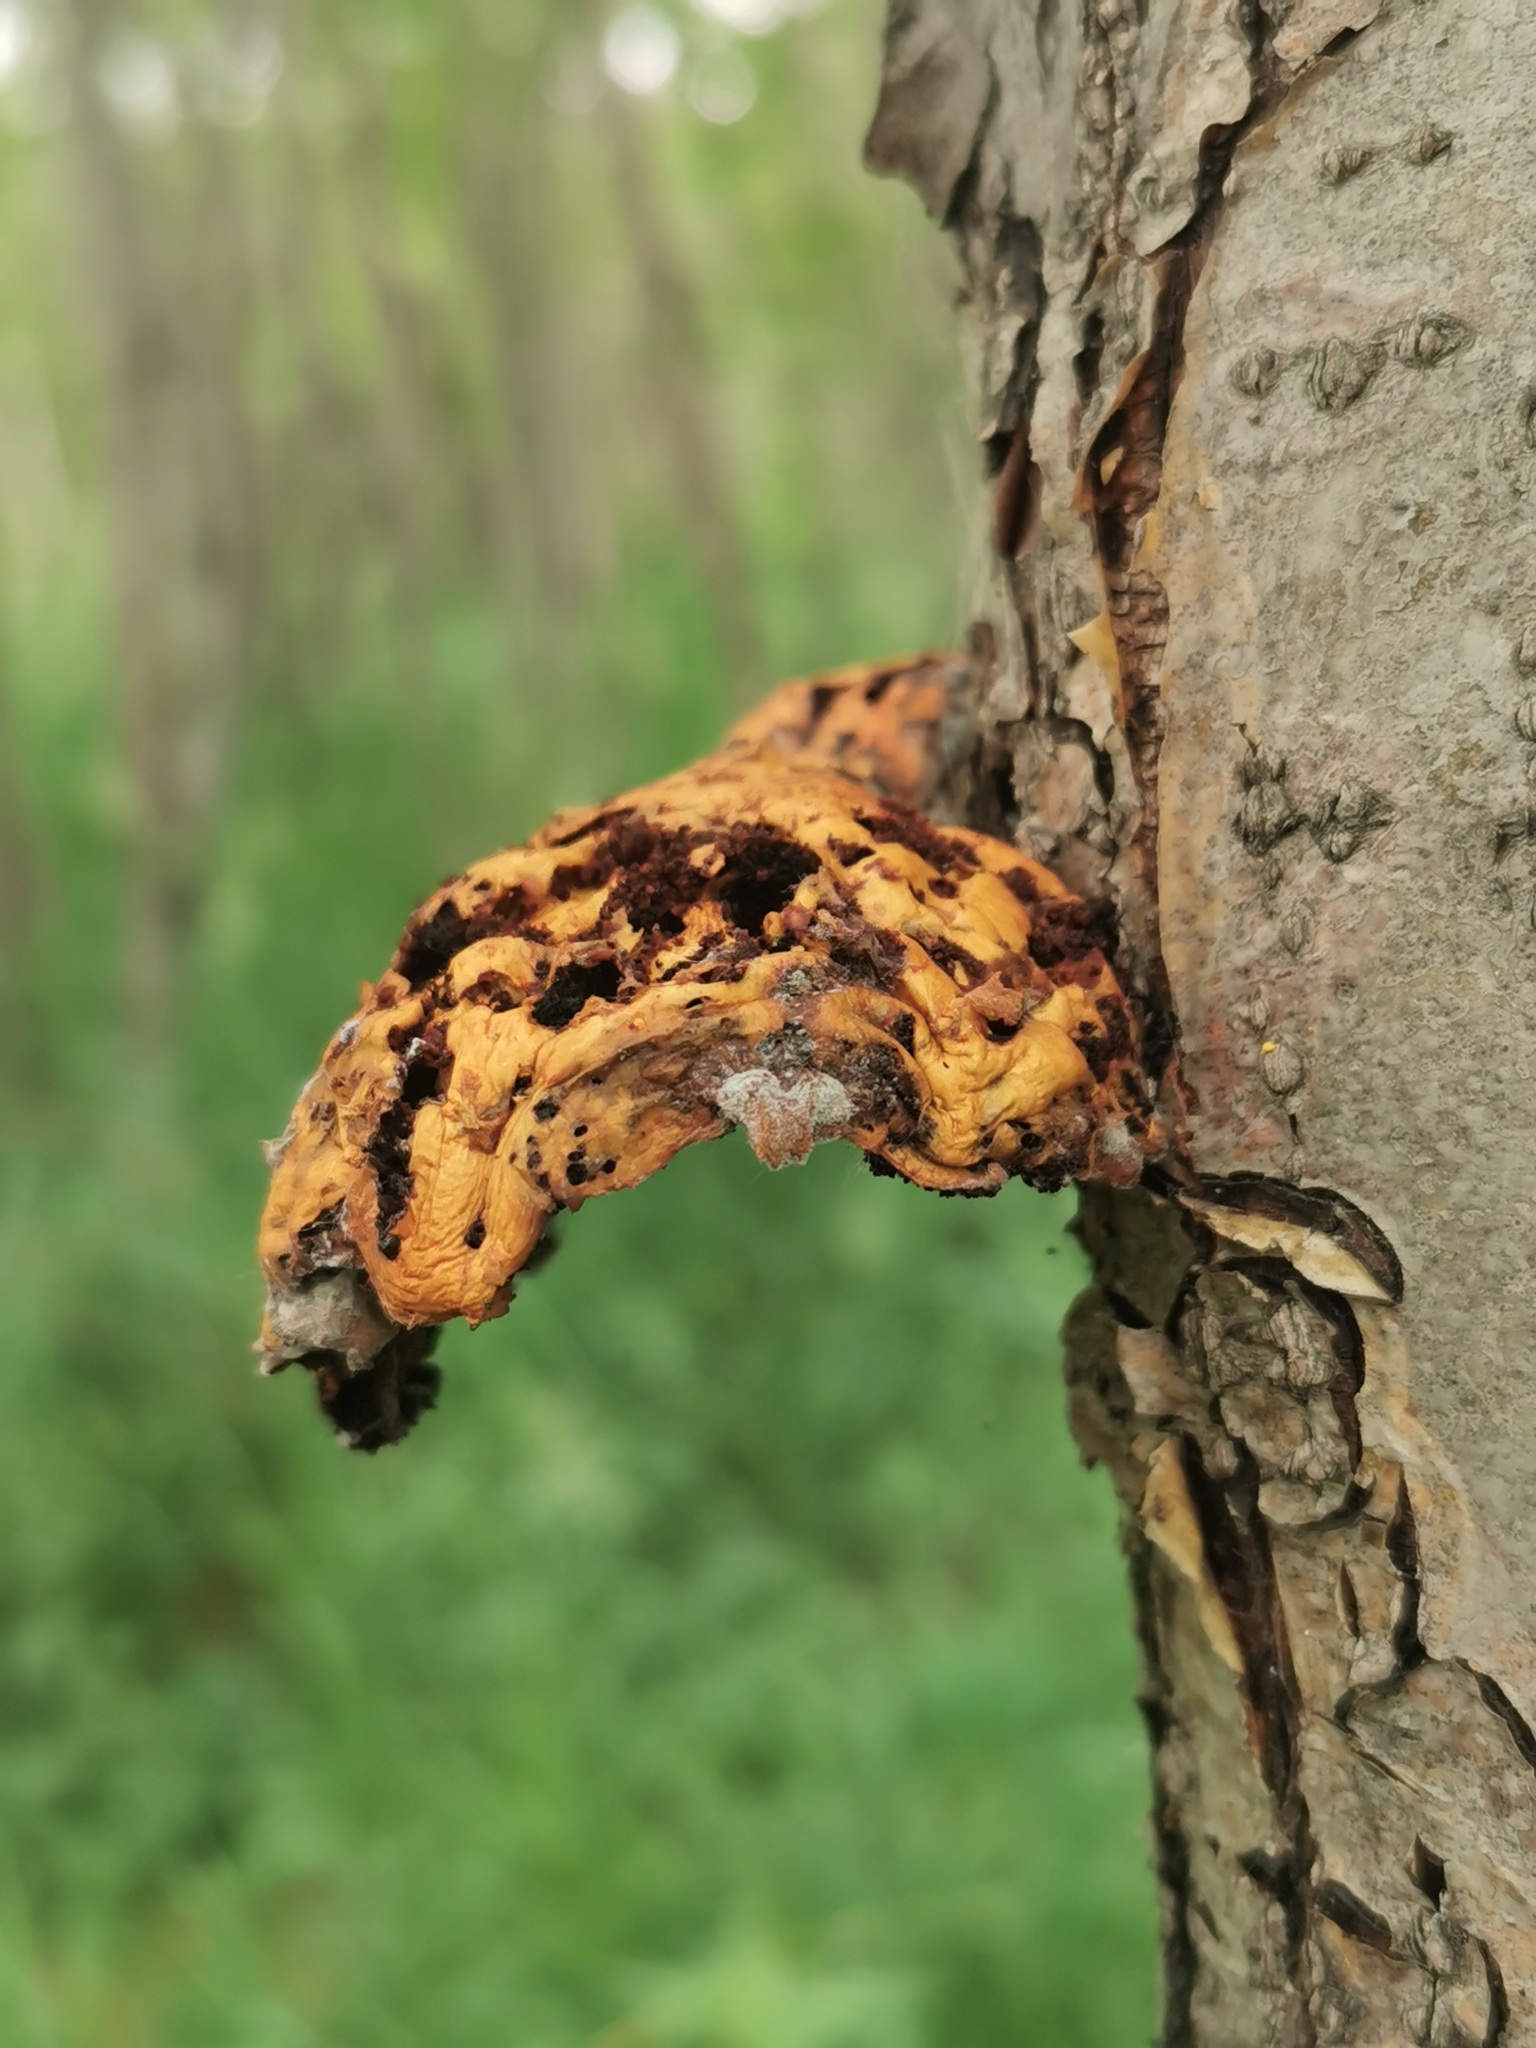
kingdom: Fungi
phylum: Basidiomycota
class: Agaricomycetes
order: Agaricales
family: Strophariaceae
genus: Pholiota
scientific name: Pholiota aurivella
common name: Golden scalycap
